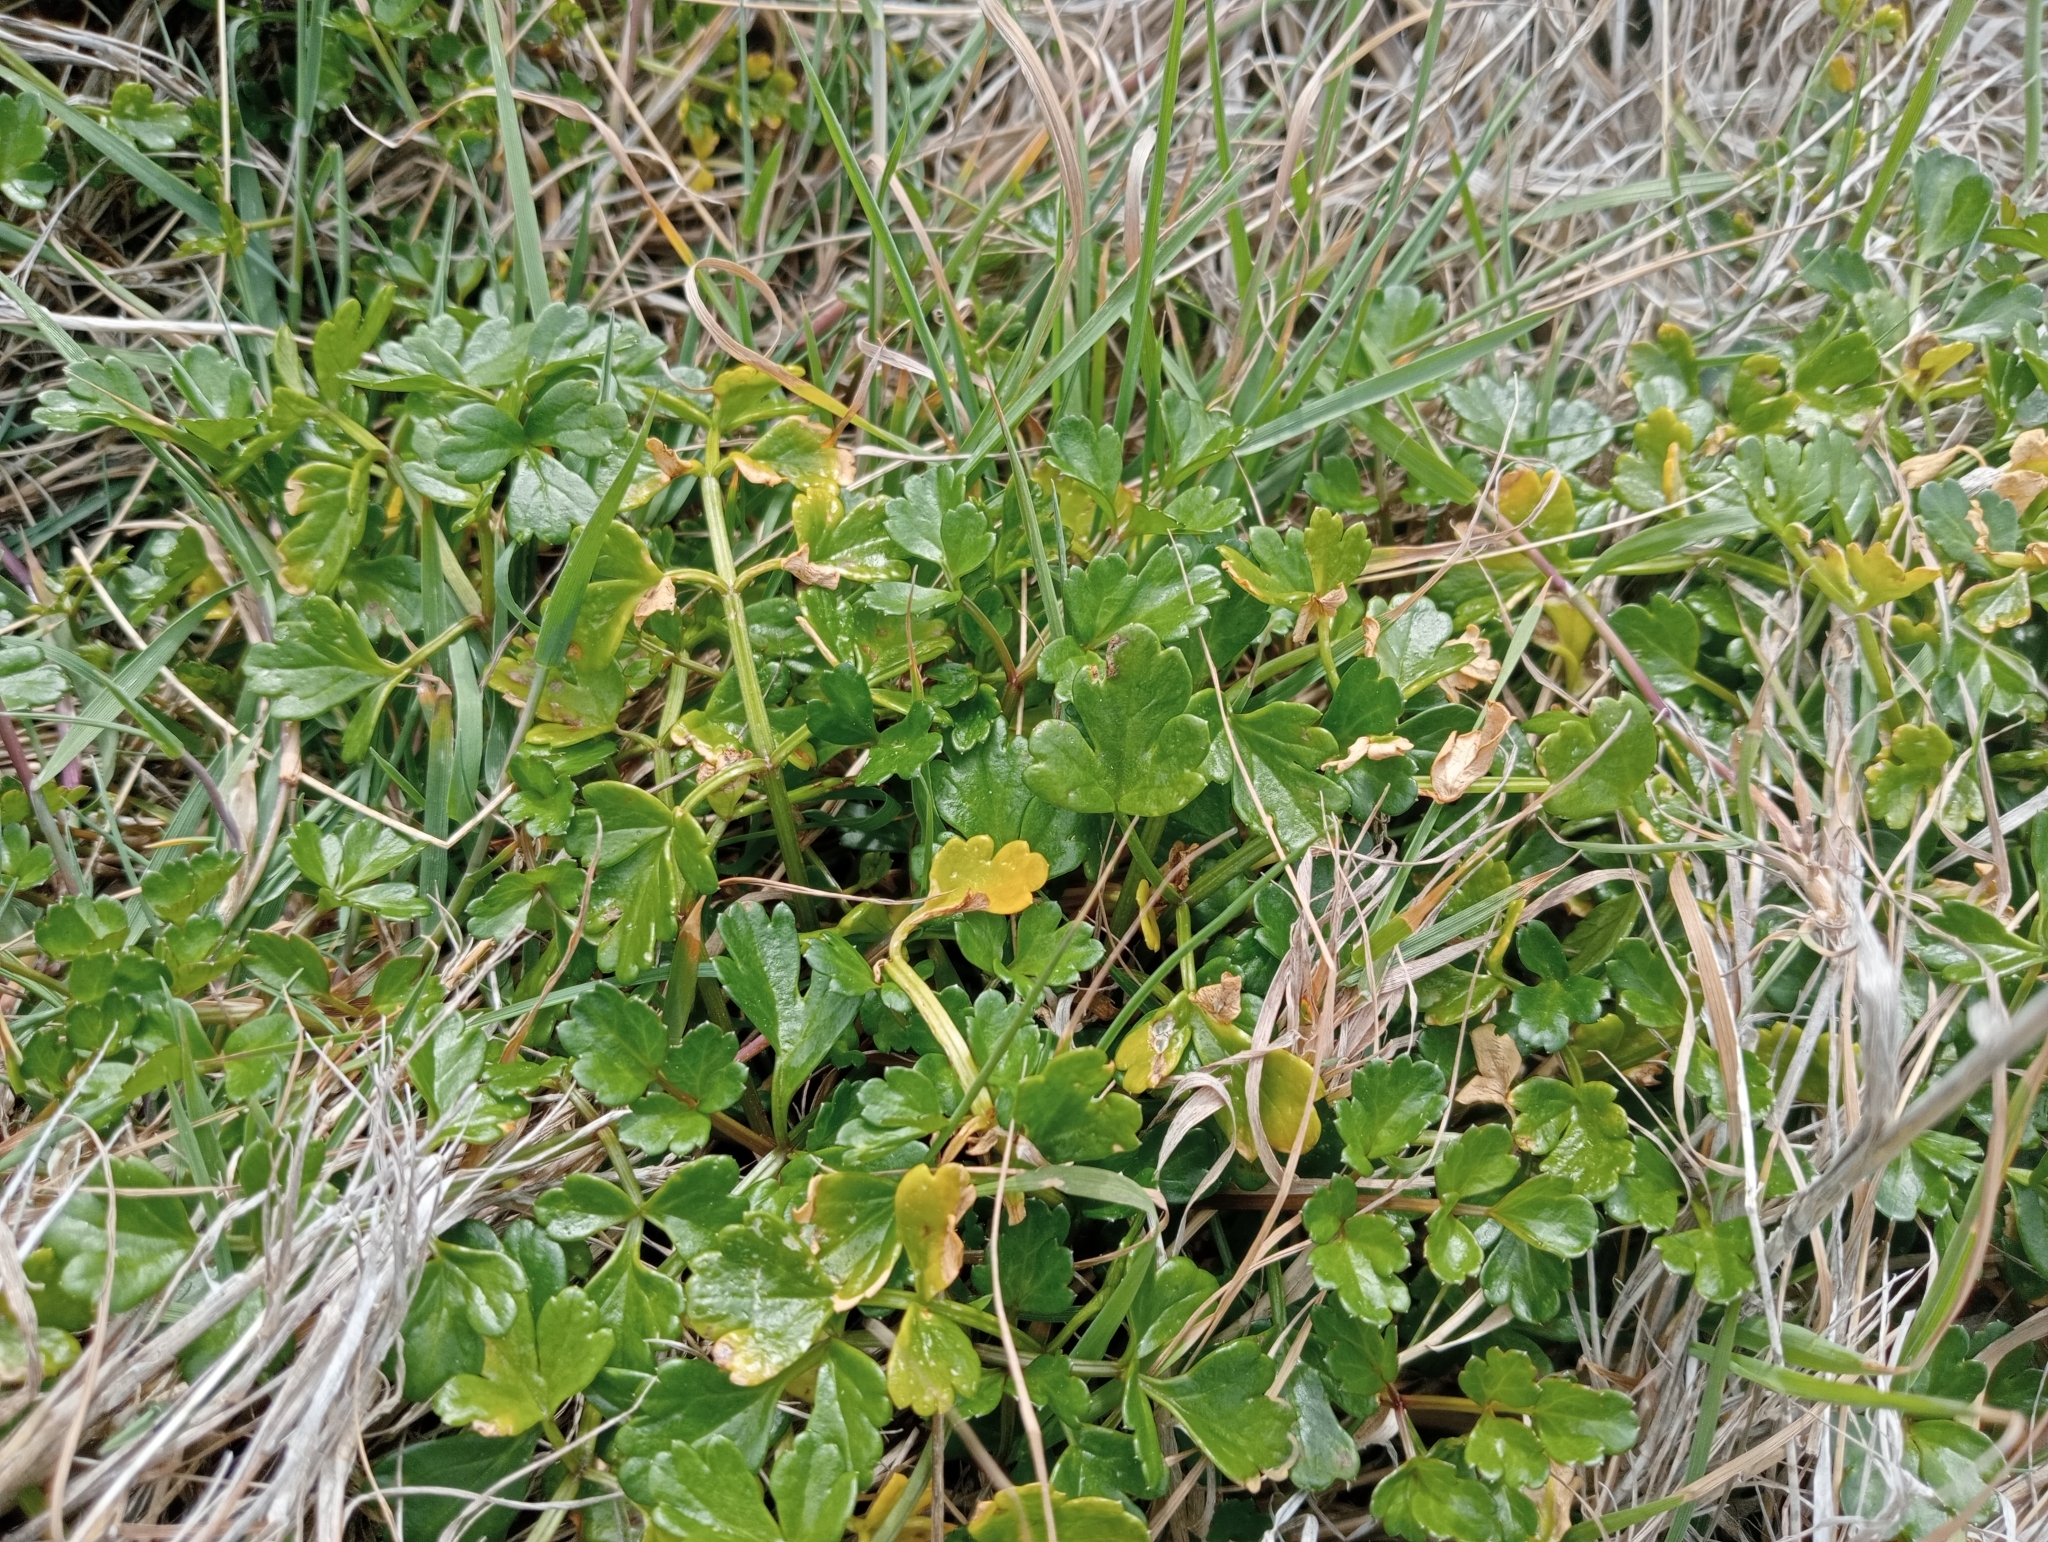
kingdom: Plantae
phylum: Tracheophyta
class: Magnoliopsida
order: Apiales
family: Apiaceae
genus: Apium
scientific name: Apium prostratum
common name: Prostrate marshwort
